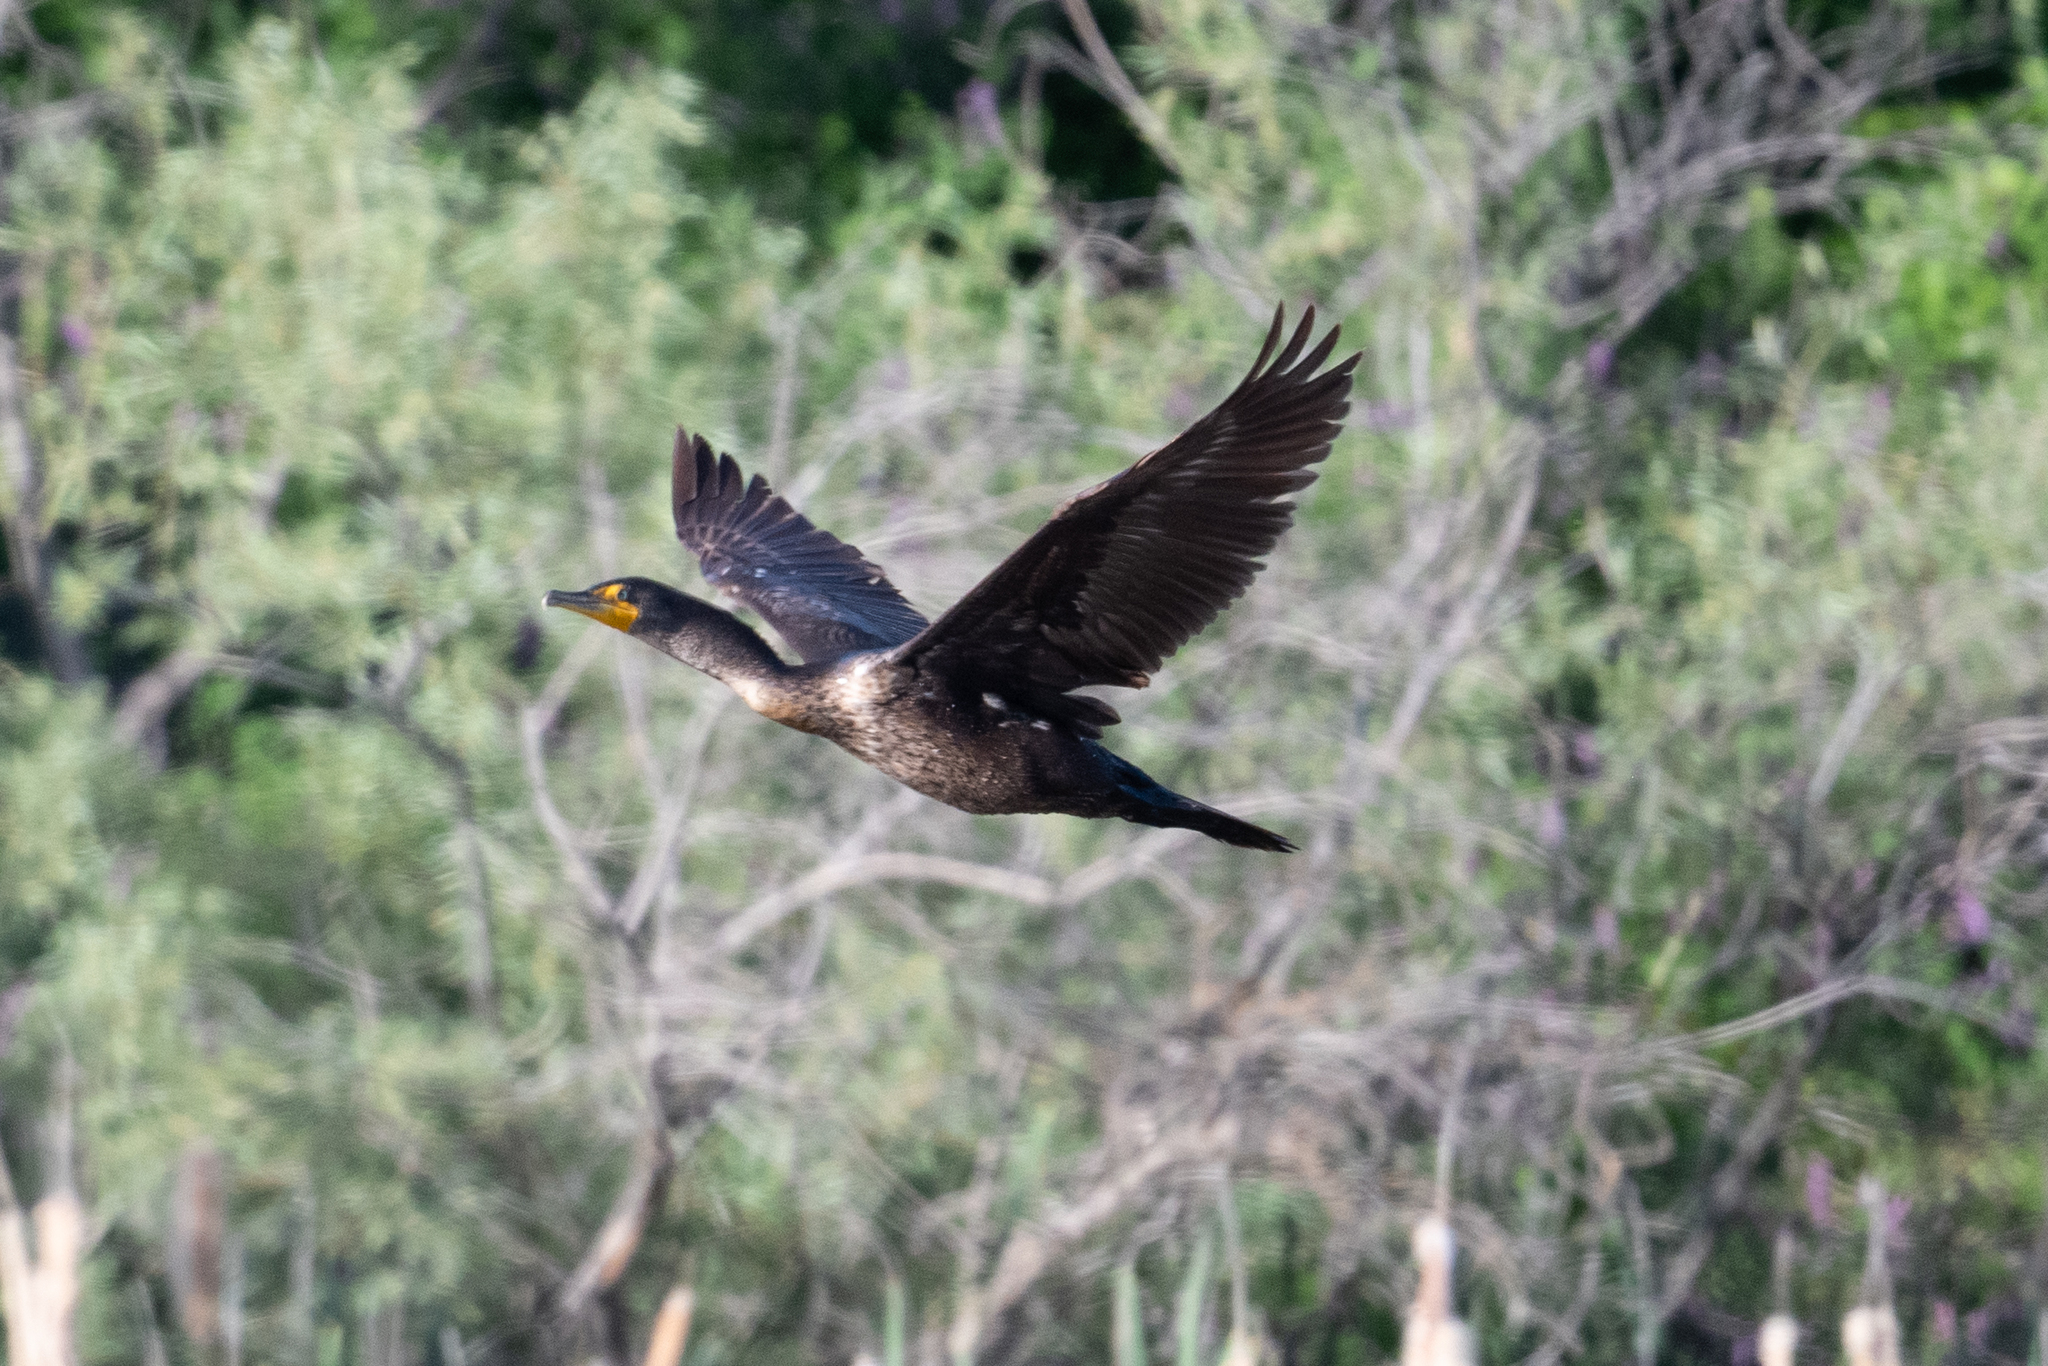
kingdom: Animalia
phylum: Chordata
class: Aves
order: Suliformes
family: Phalacrocoracidae
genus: Phalacrocorax
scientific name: Phalacrocorax auritus
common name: Double-crested cormorant
